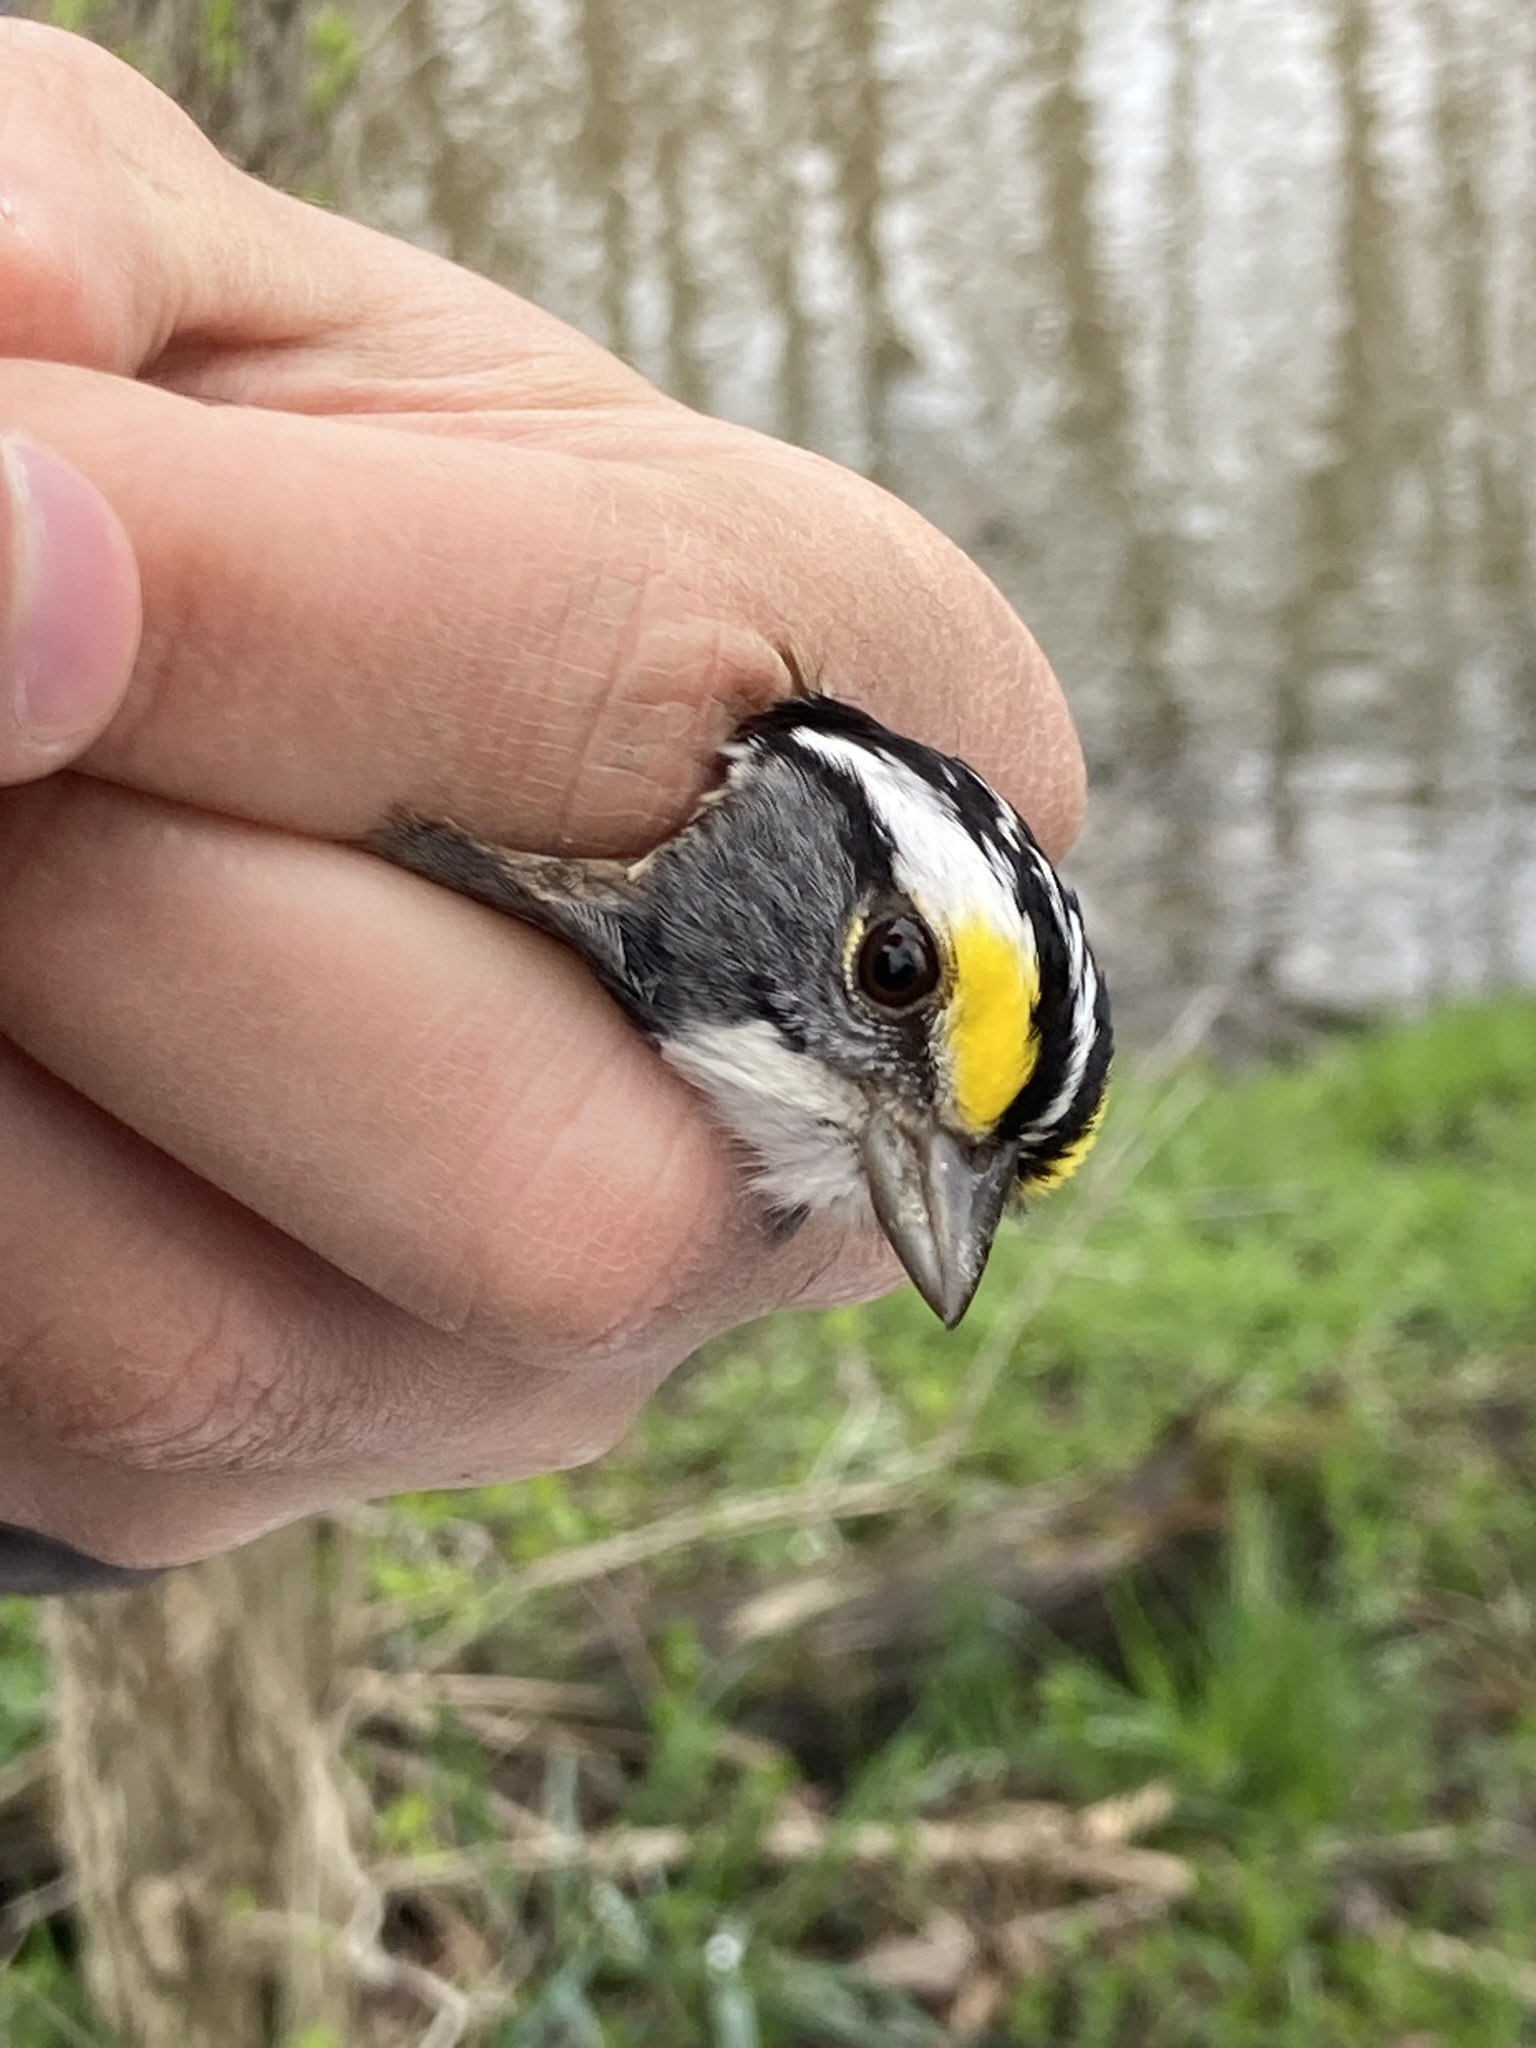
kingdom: Animalia
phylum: Chordata
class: Aves
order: Passeriformes
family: Passerellidae
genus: Zonotrichia
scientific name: Zonotrichia albicollis
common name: White-throated sparrow
